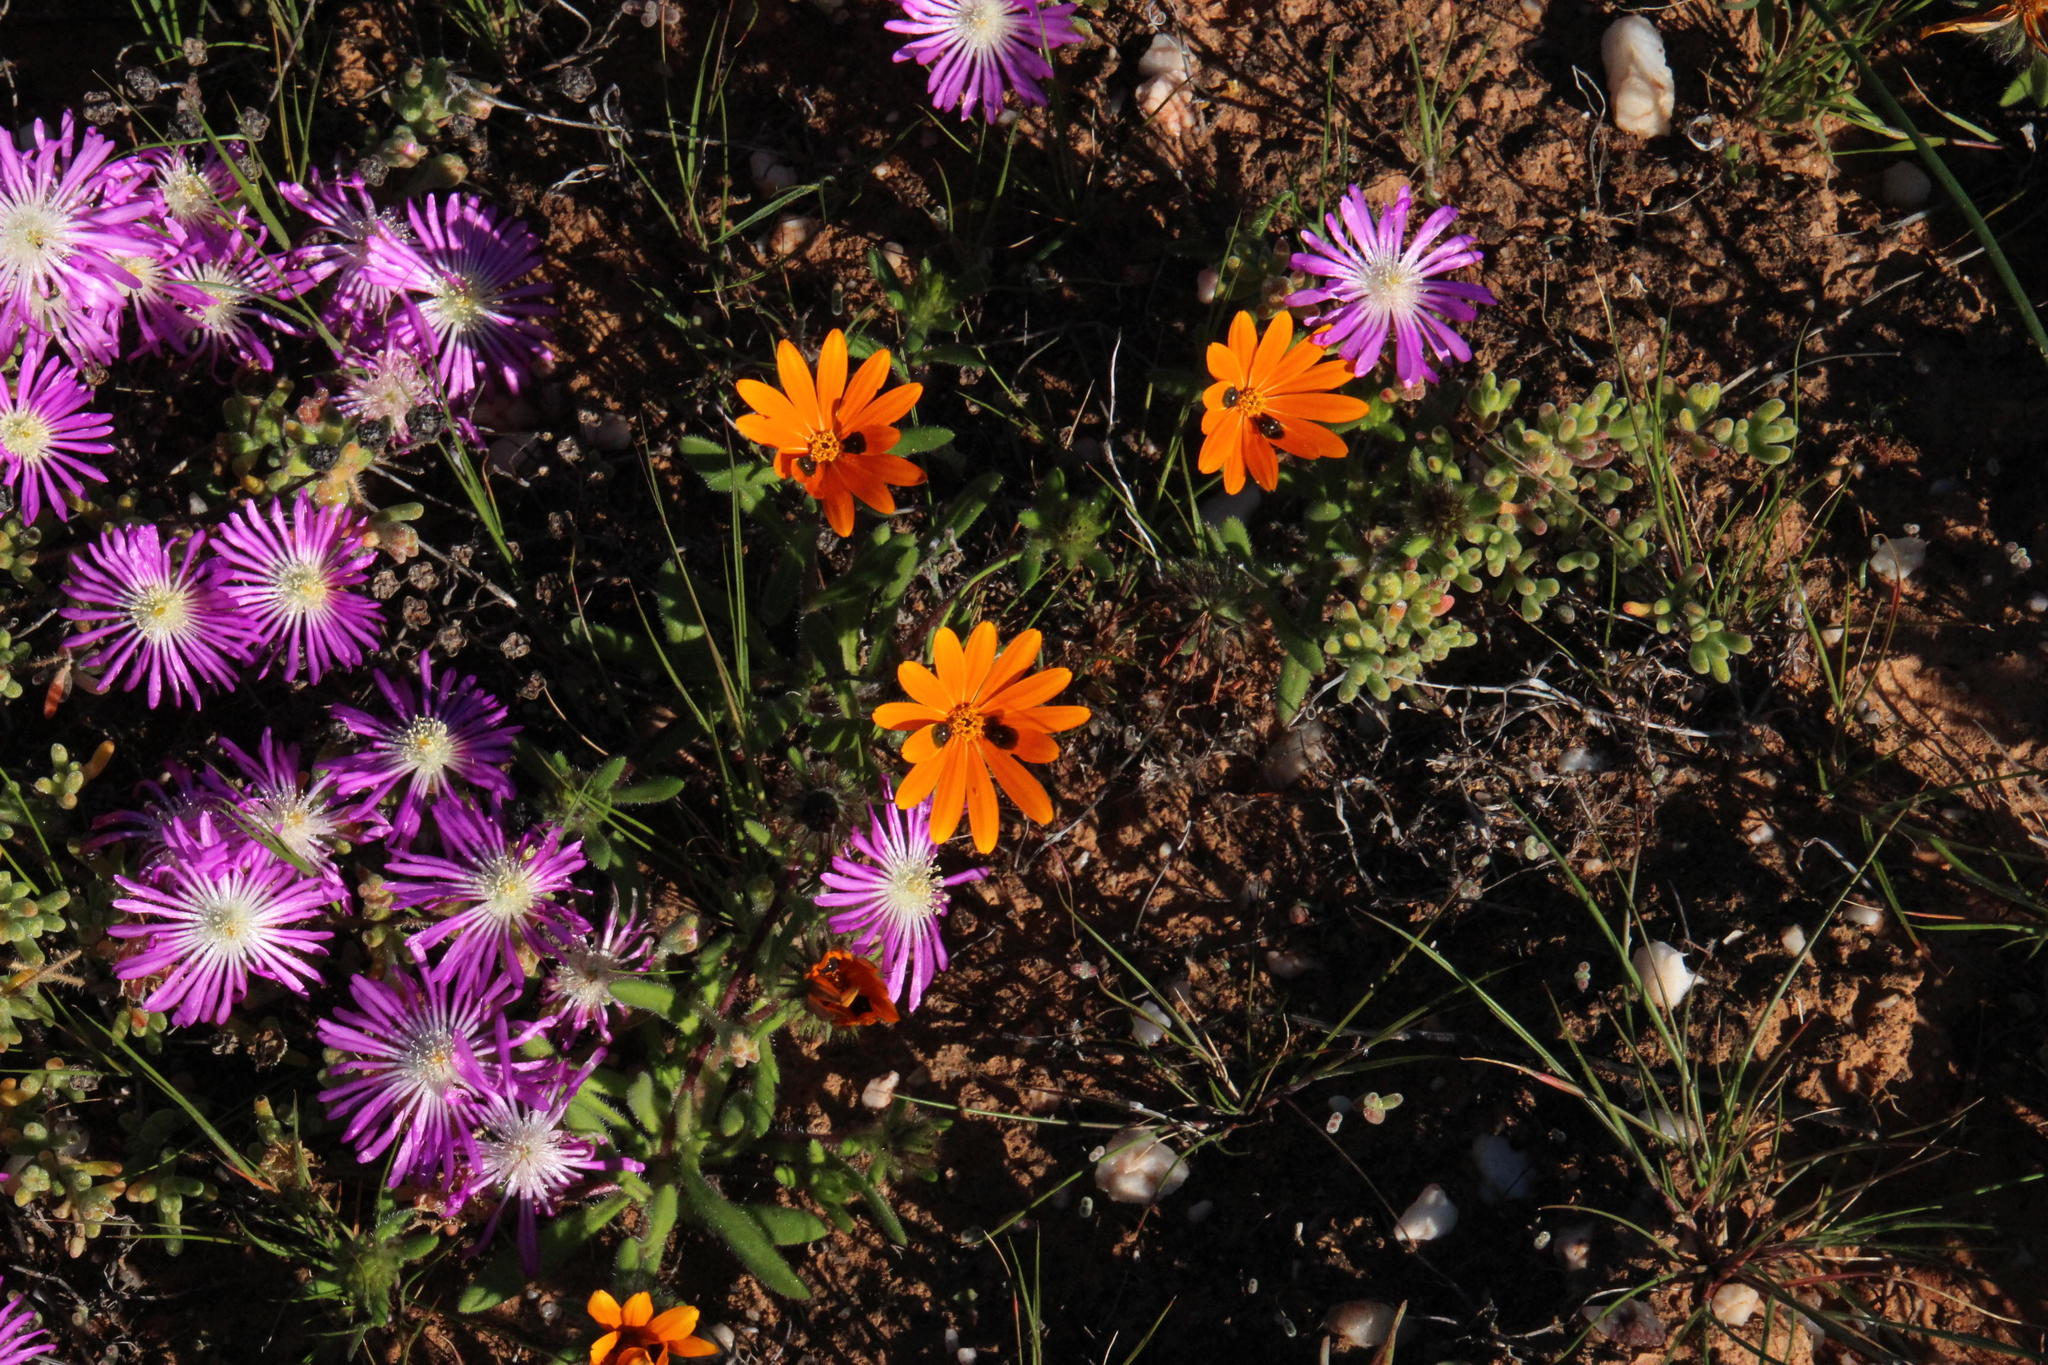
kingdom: Plantae
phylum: Tracheophyta
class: Magnoliopsida
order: Asterales
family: Asteraceae
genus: Gorteria
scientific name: Gorteria diffusa
